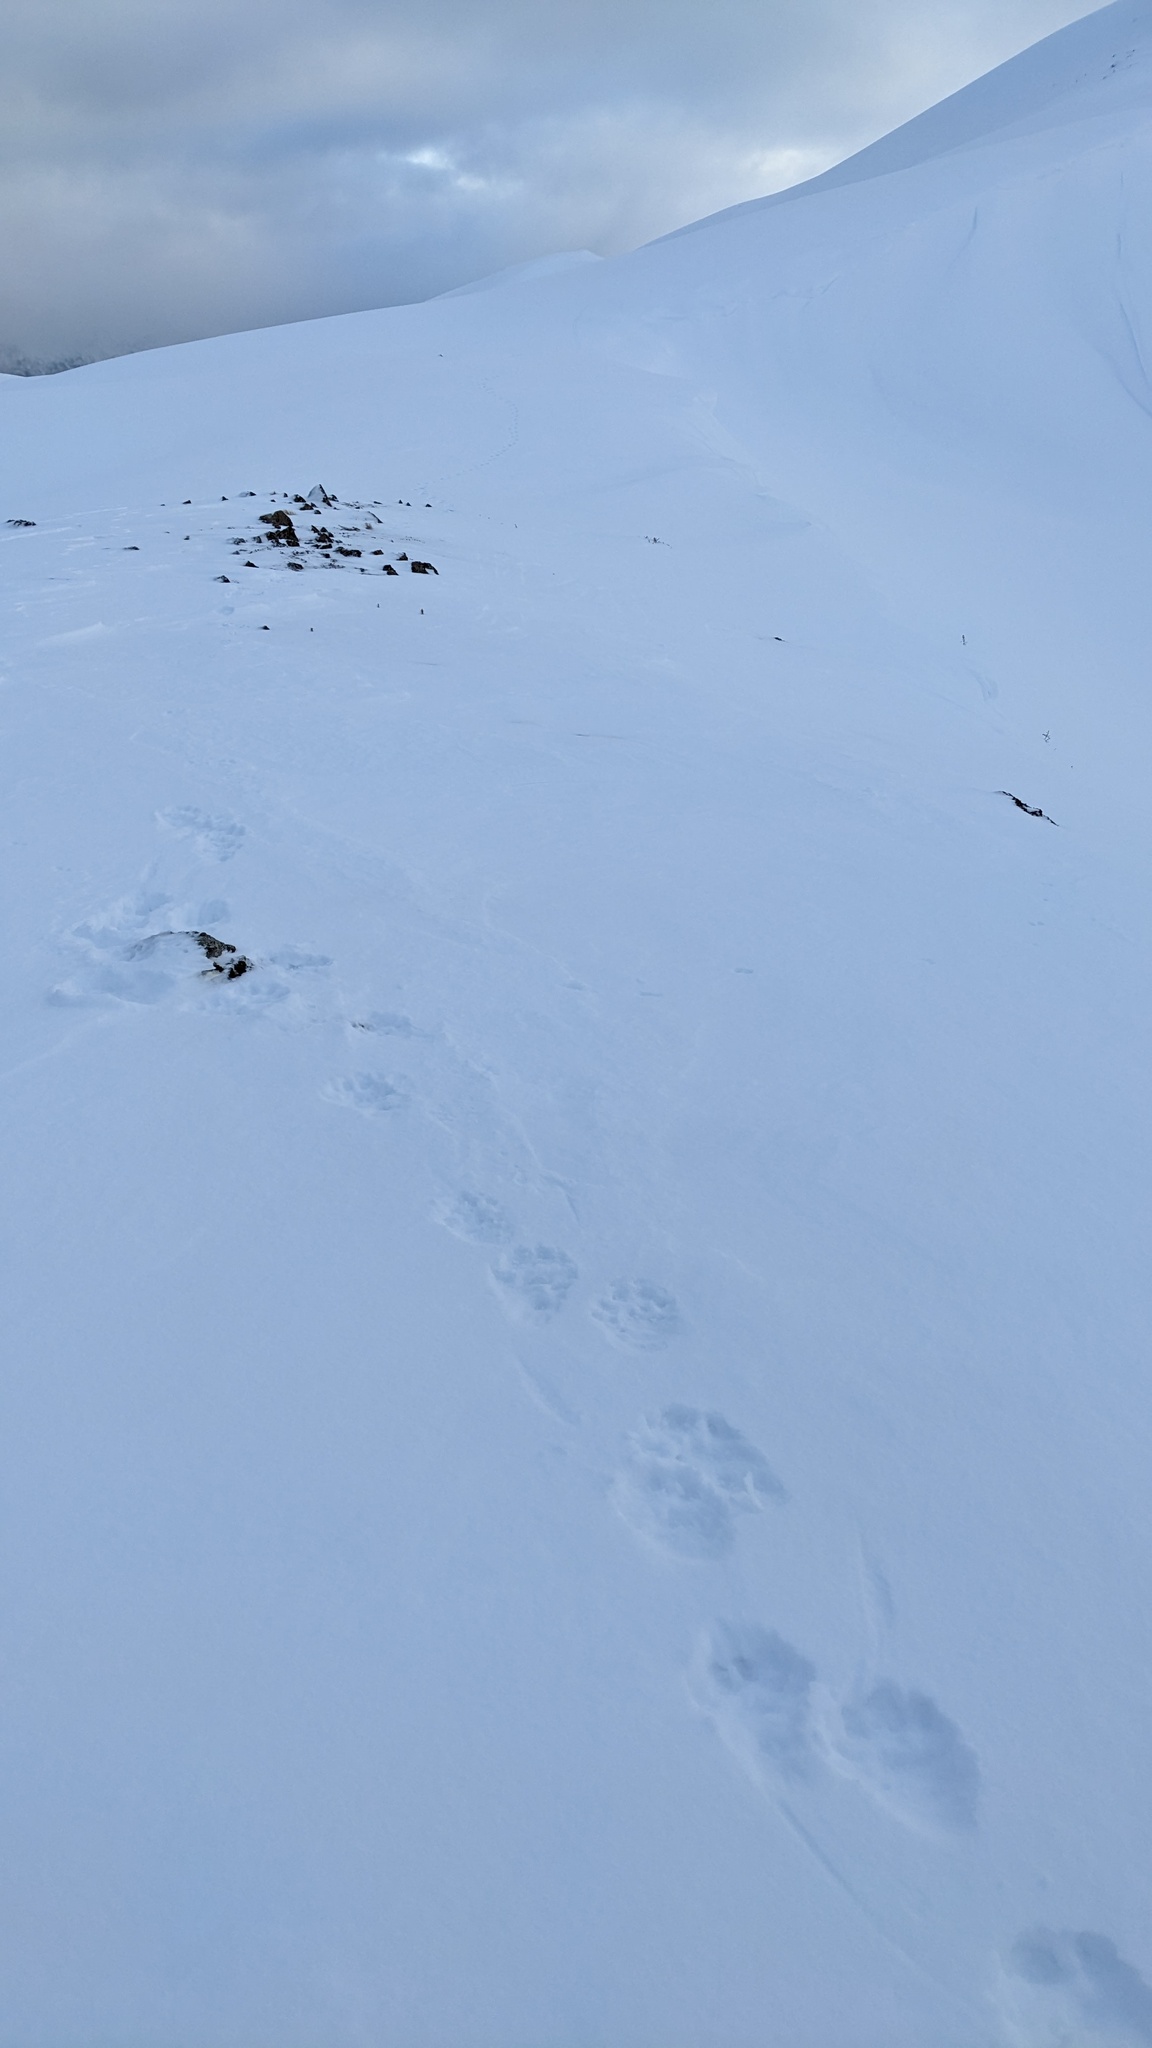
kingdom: Animalia
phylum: Chordata
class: Mammalia
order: Carnivora
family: Mustelidae
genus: Gulo
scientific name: Gulo gulo
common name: Wolverine
